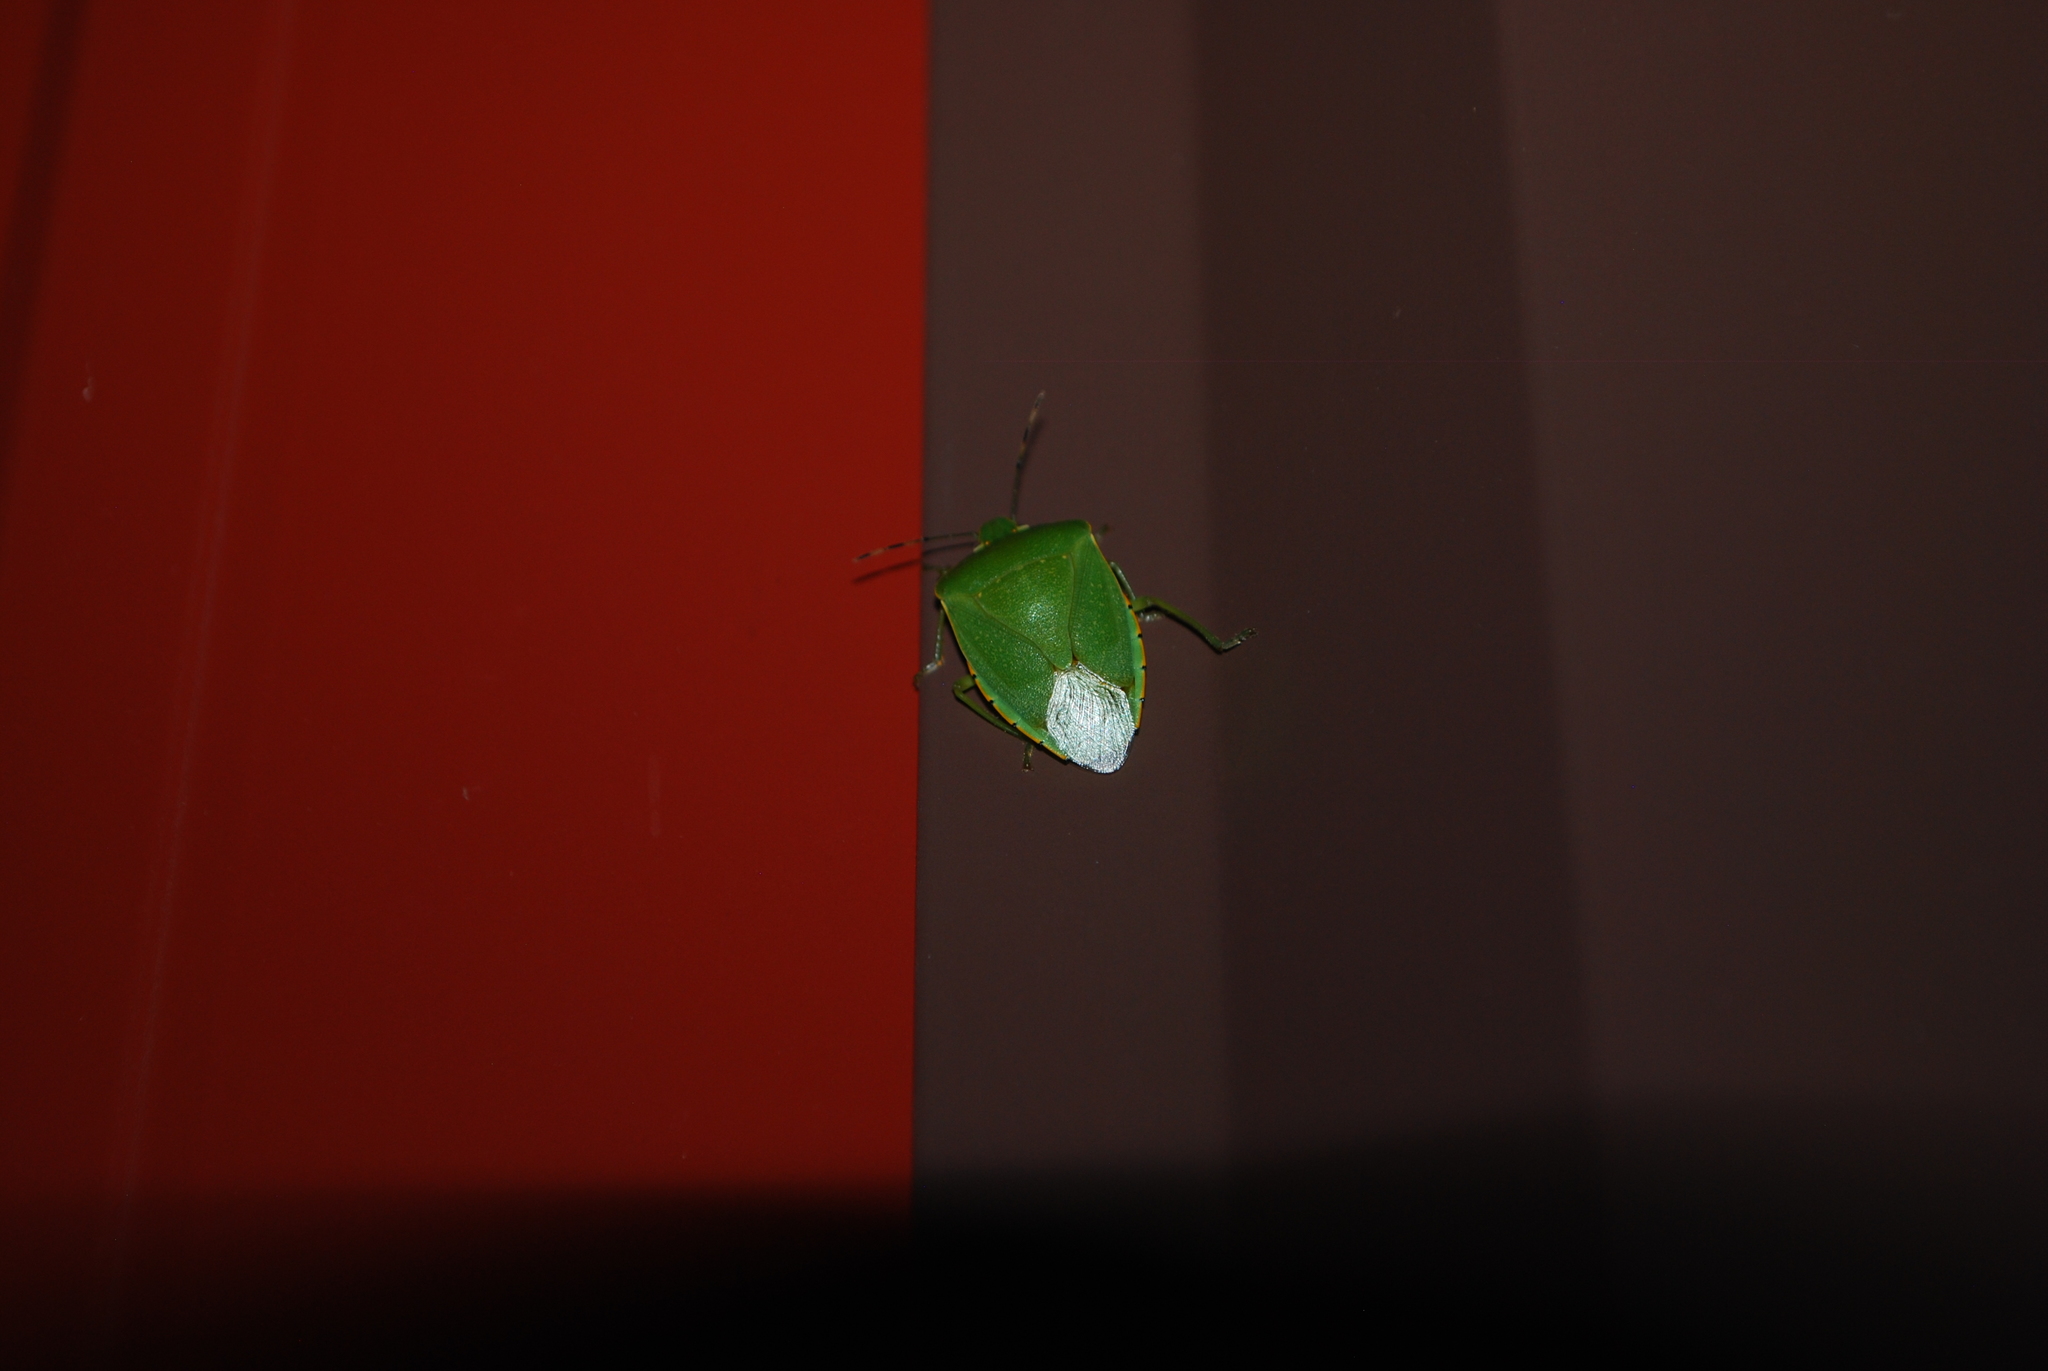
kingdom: Animalia
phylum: Arthropoda
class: Insecta
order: Hemiptera
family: Pentatomidae
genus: Chinavia
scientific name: Chinavia hilaris
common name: Green stink bug
